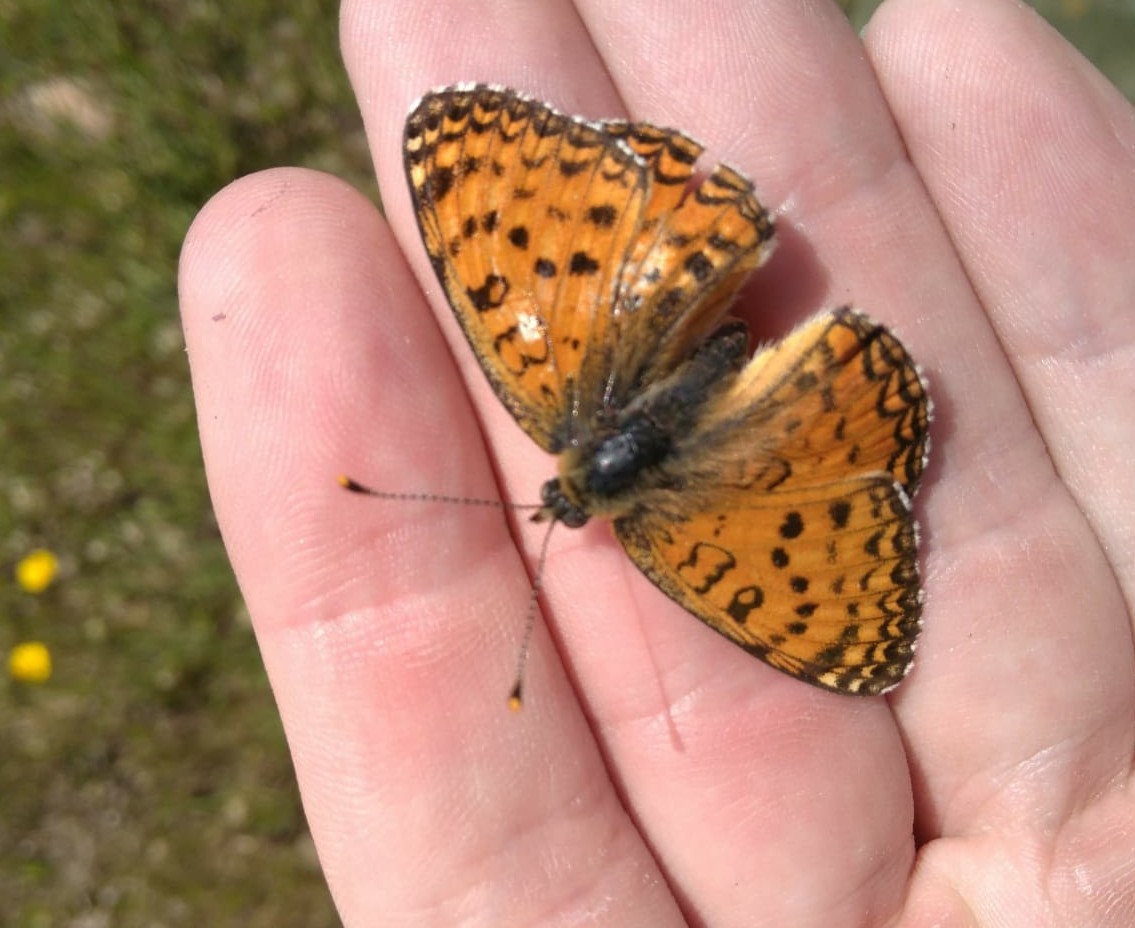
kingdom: Animalia
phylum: Arthropoda
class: Insecta
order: Lepidoptera
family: Nymphalidae
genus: Melitaea
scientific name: Melitaea aetherie
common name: Aetherie fritillary
